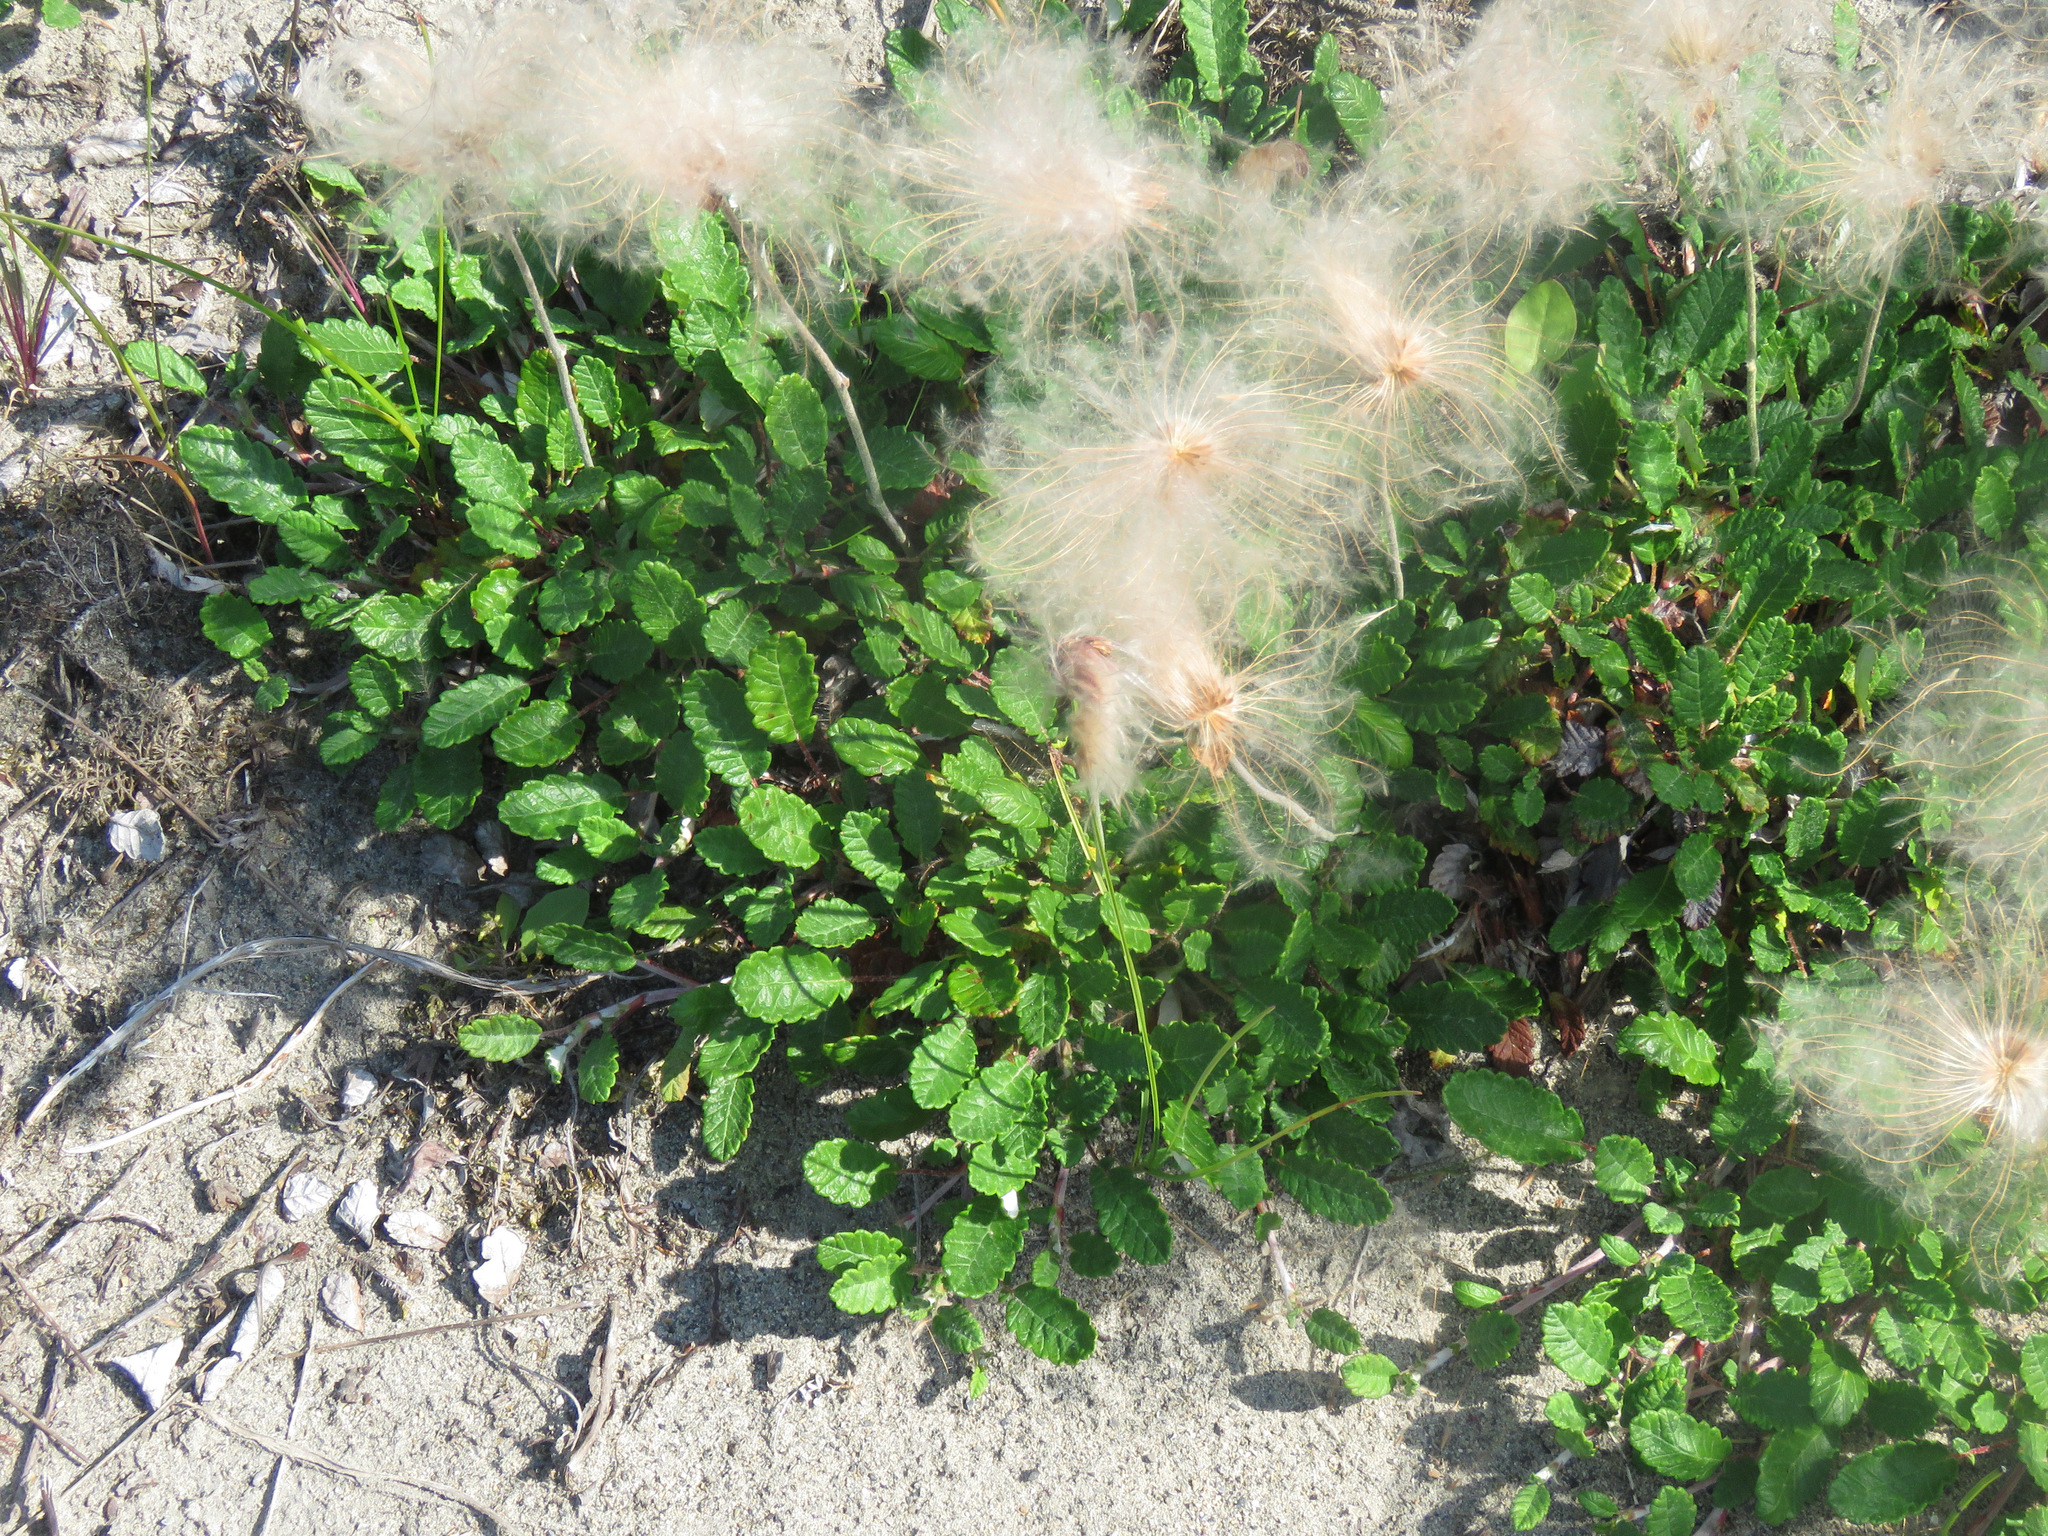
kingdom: Plantae
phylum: Tracheophyta
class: Magnoliopsida
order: Rosales
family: Rosaceae
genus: Dryas
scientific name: Dryas drummondii
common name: Drummond's dryad
